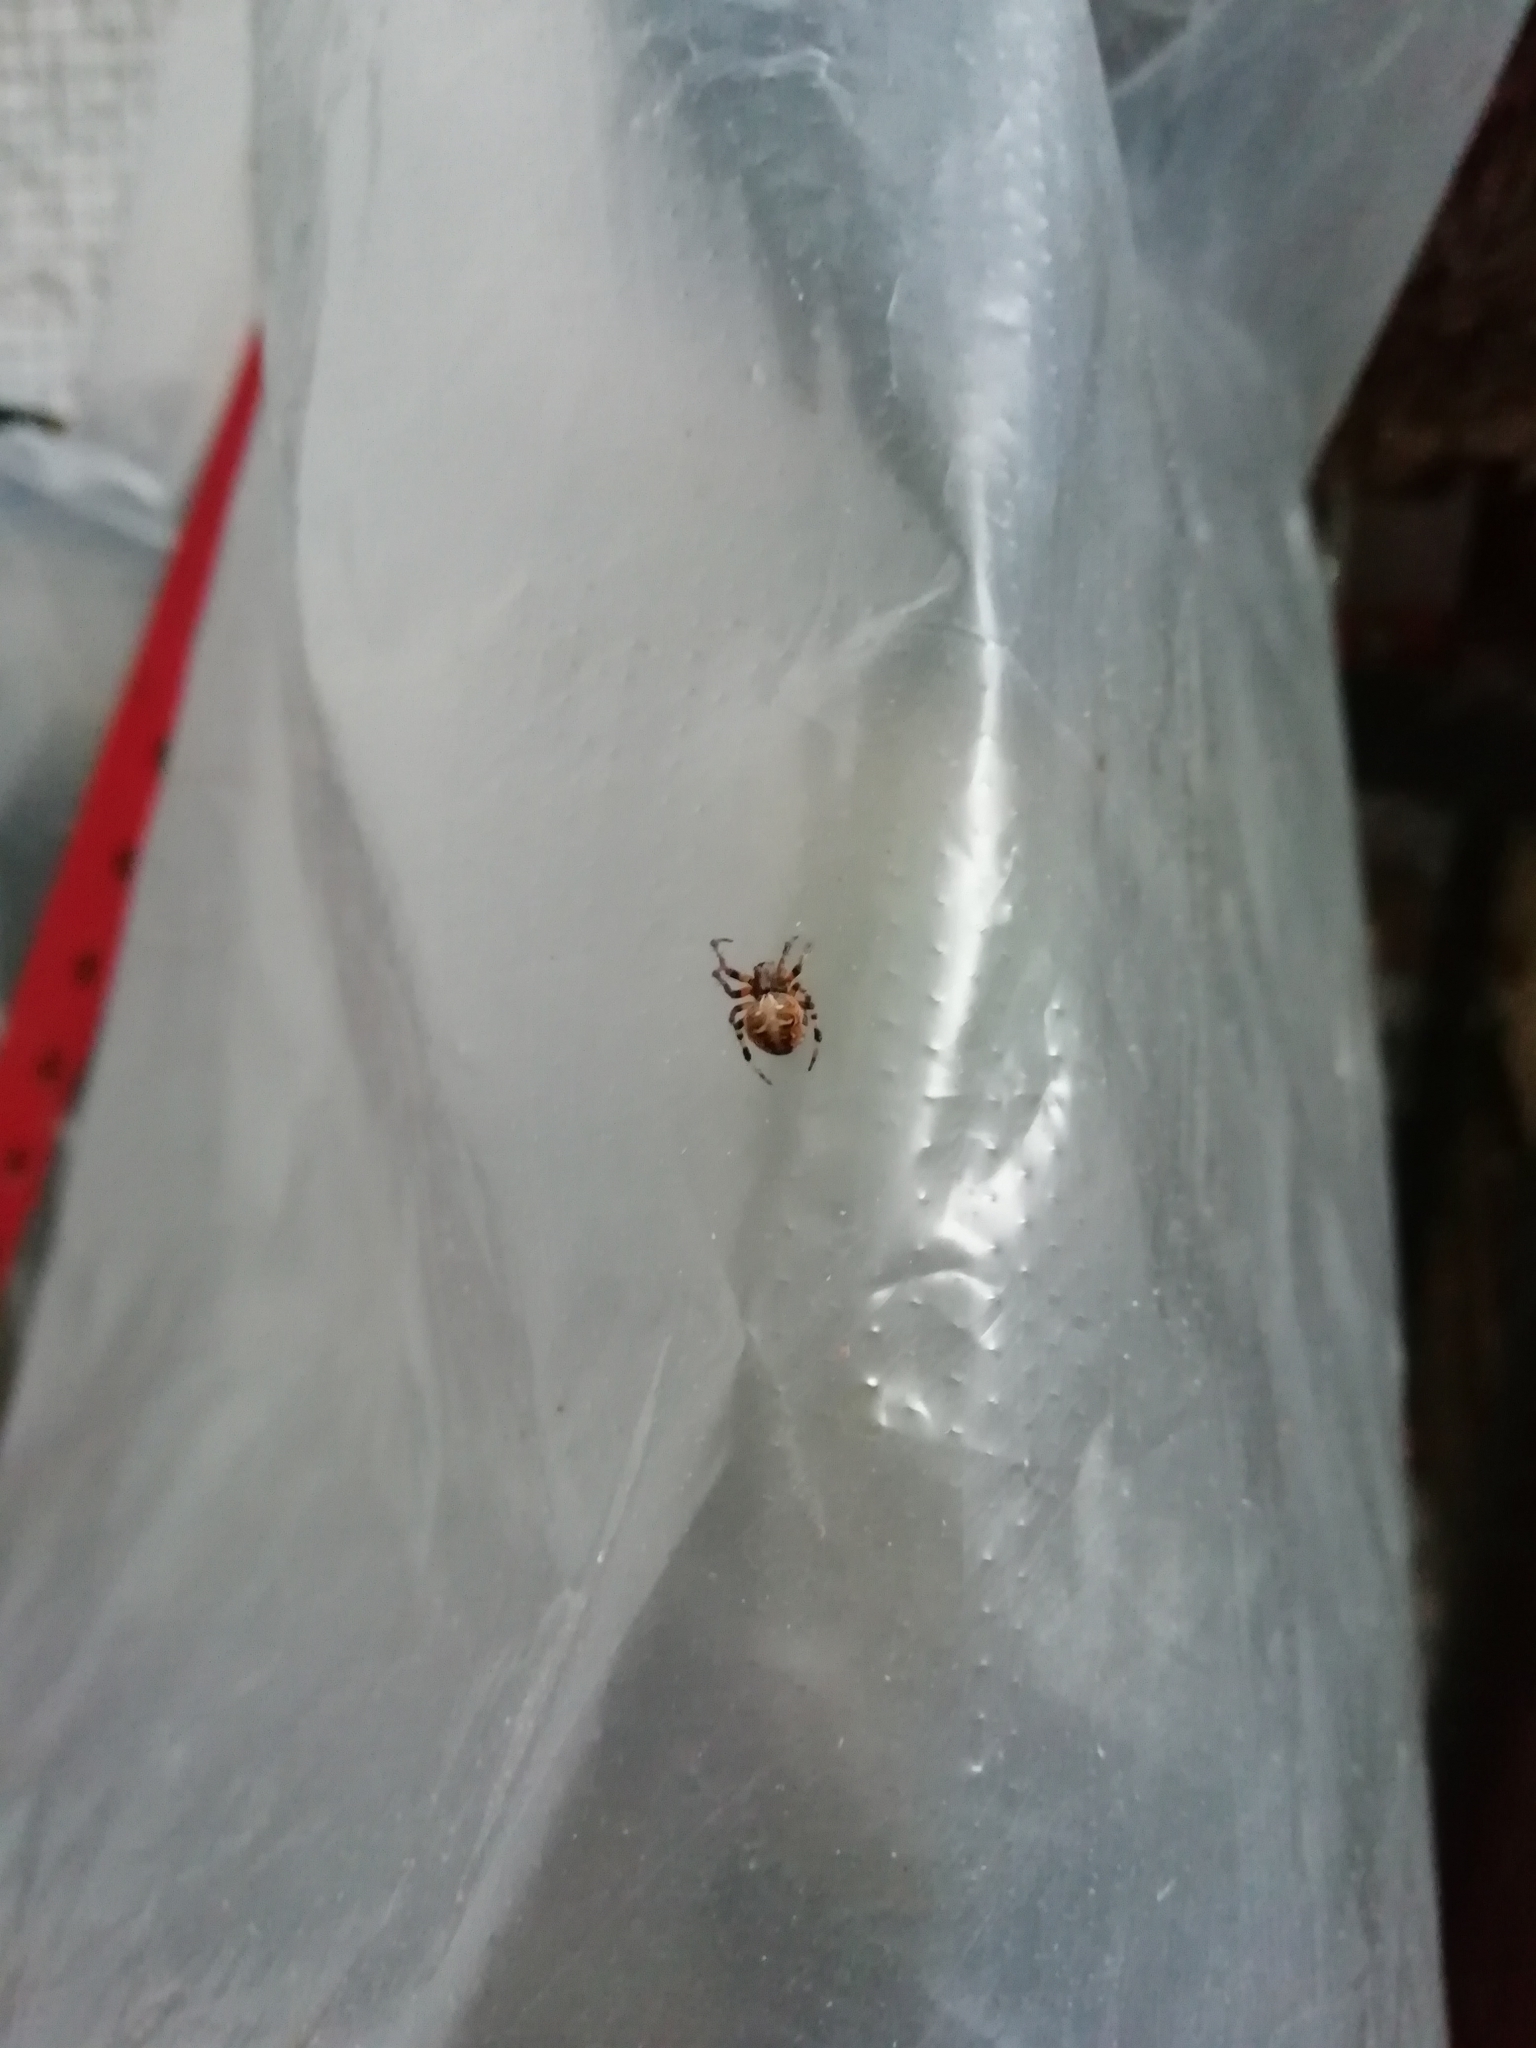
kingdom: Animalia
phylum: Arthropoda
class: Arachnida
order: Araneae
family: Araneidae
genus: Metepeira
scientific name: Metepeira
